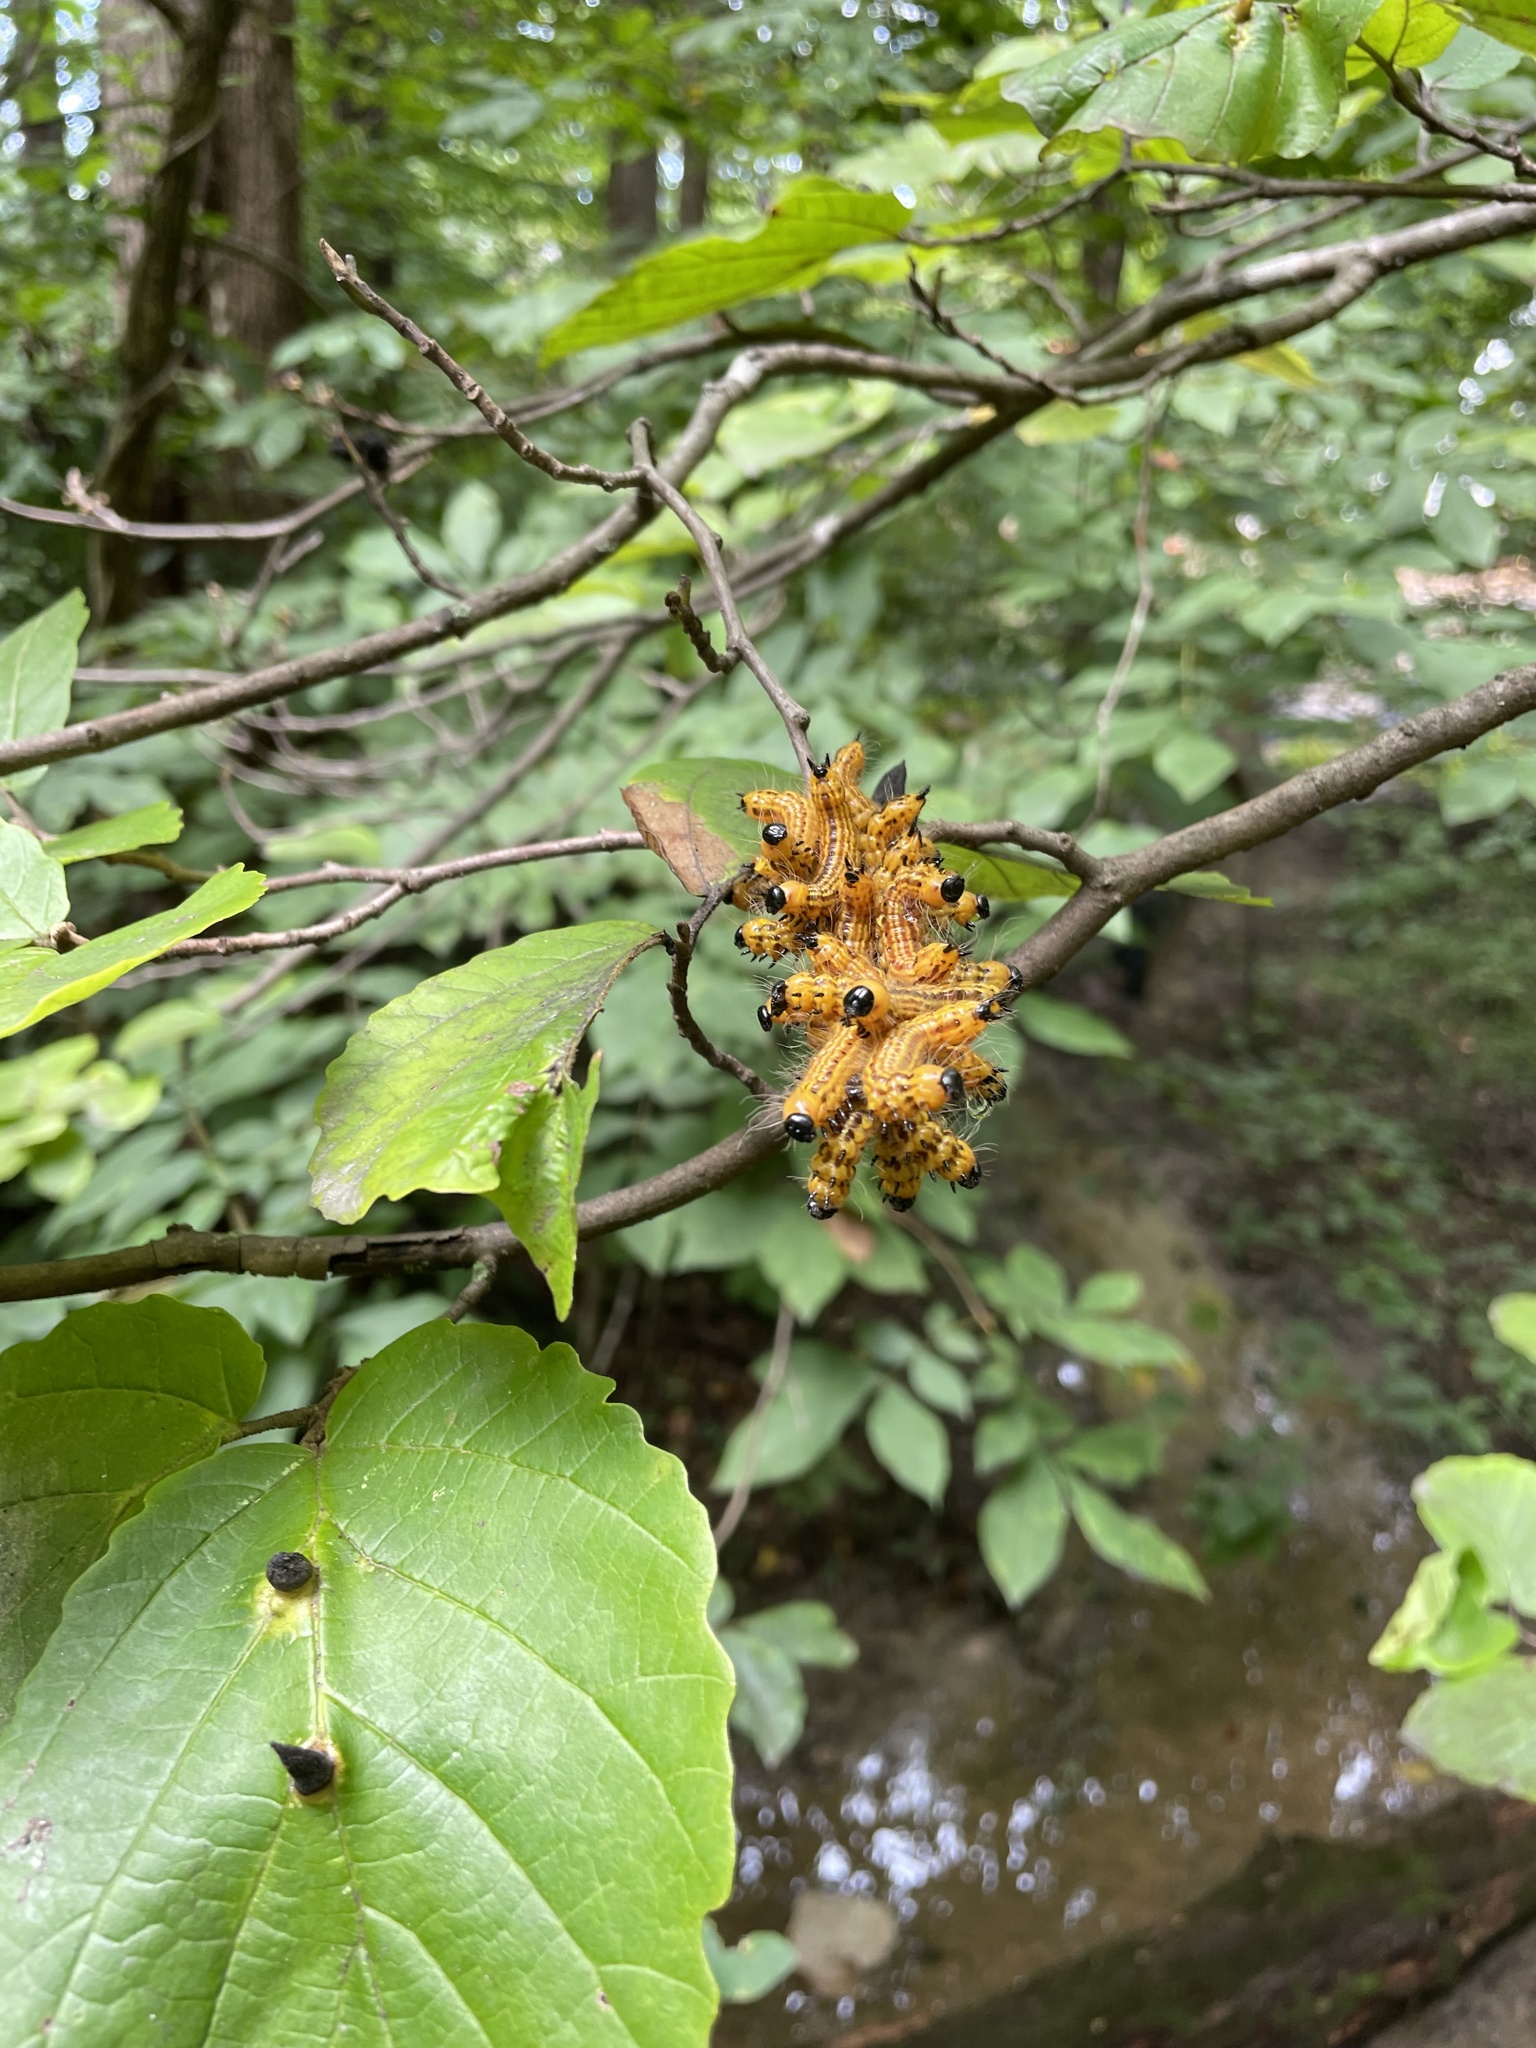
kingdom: Animalia
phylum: Arthropoda
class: Insecta
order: Lepidoptera
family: Notodontidae
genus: Datana
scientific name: Datana drexelii
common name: Drexel's datana
